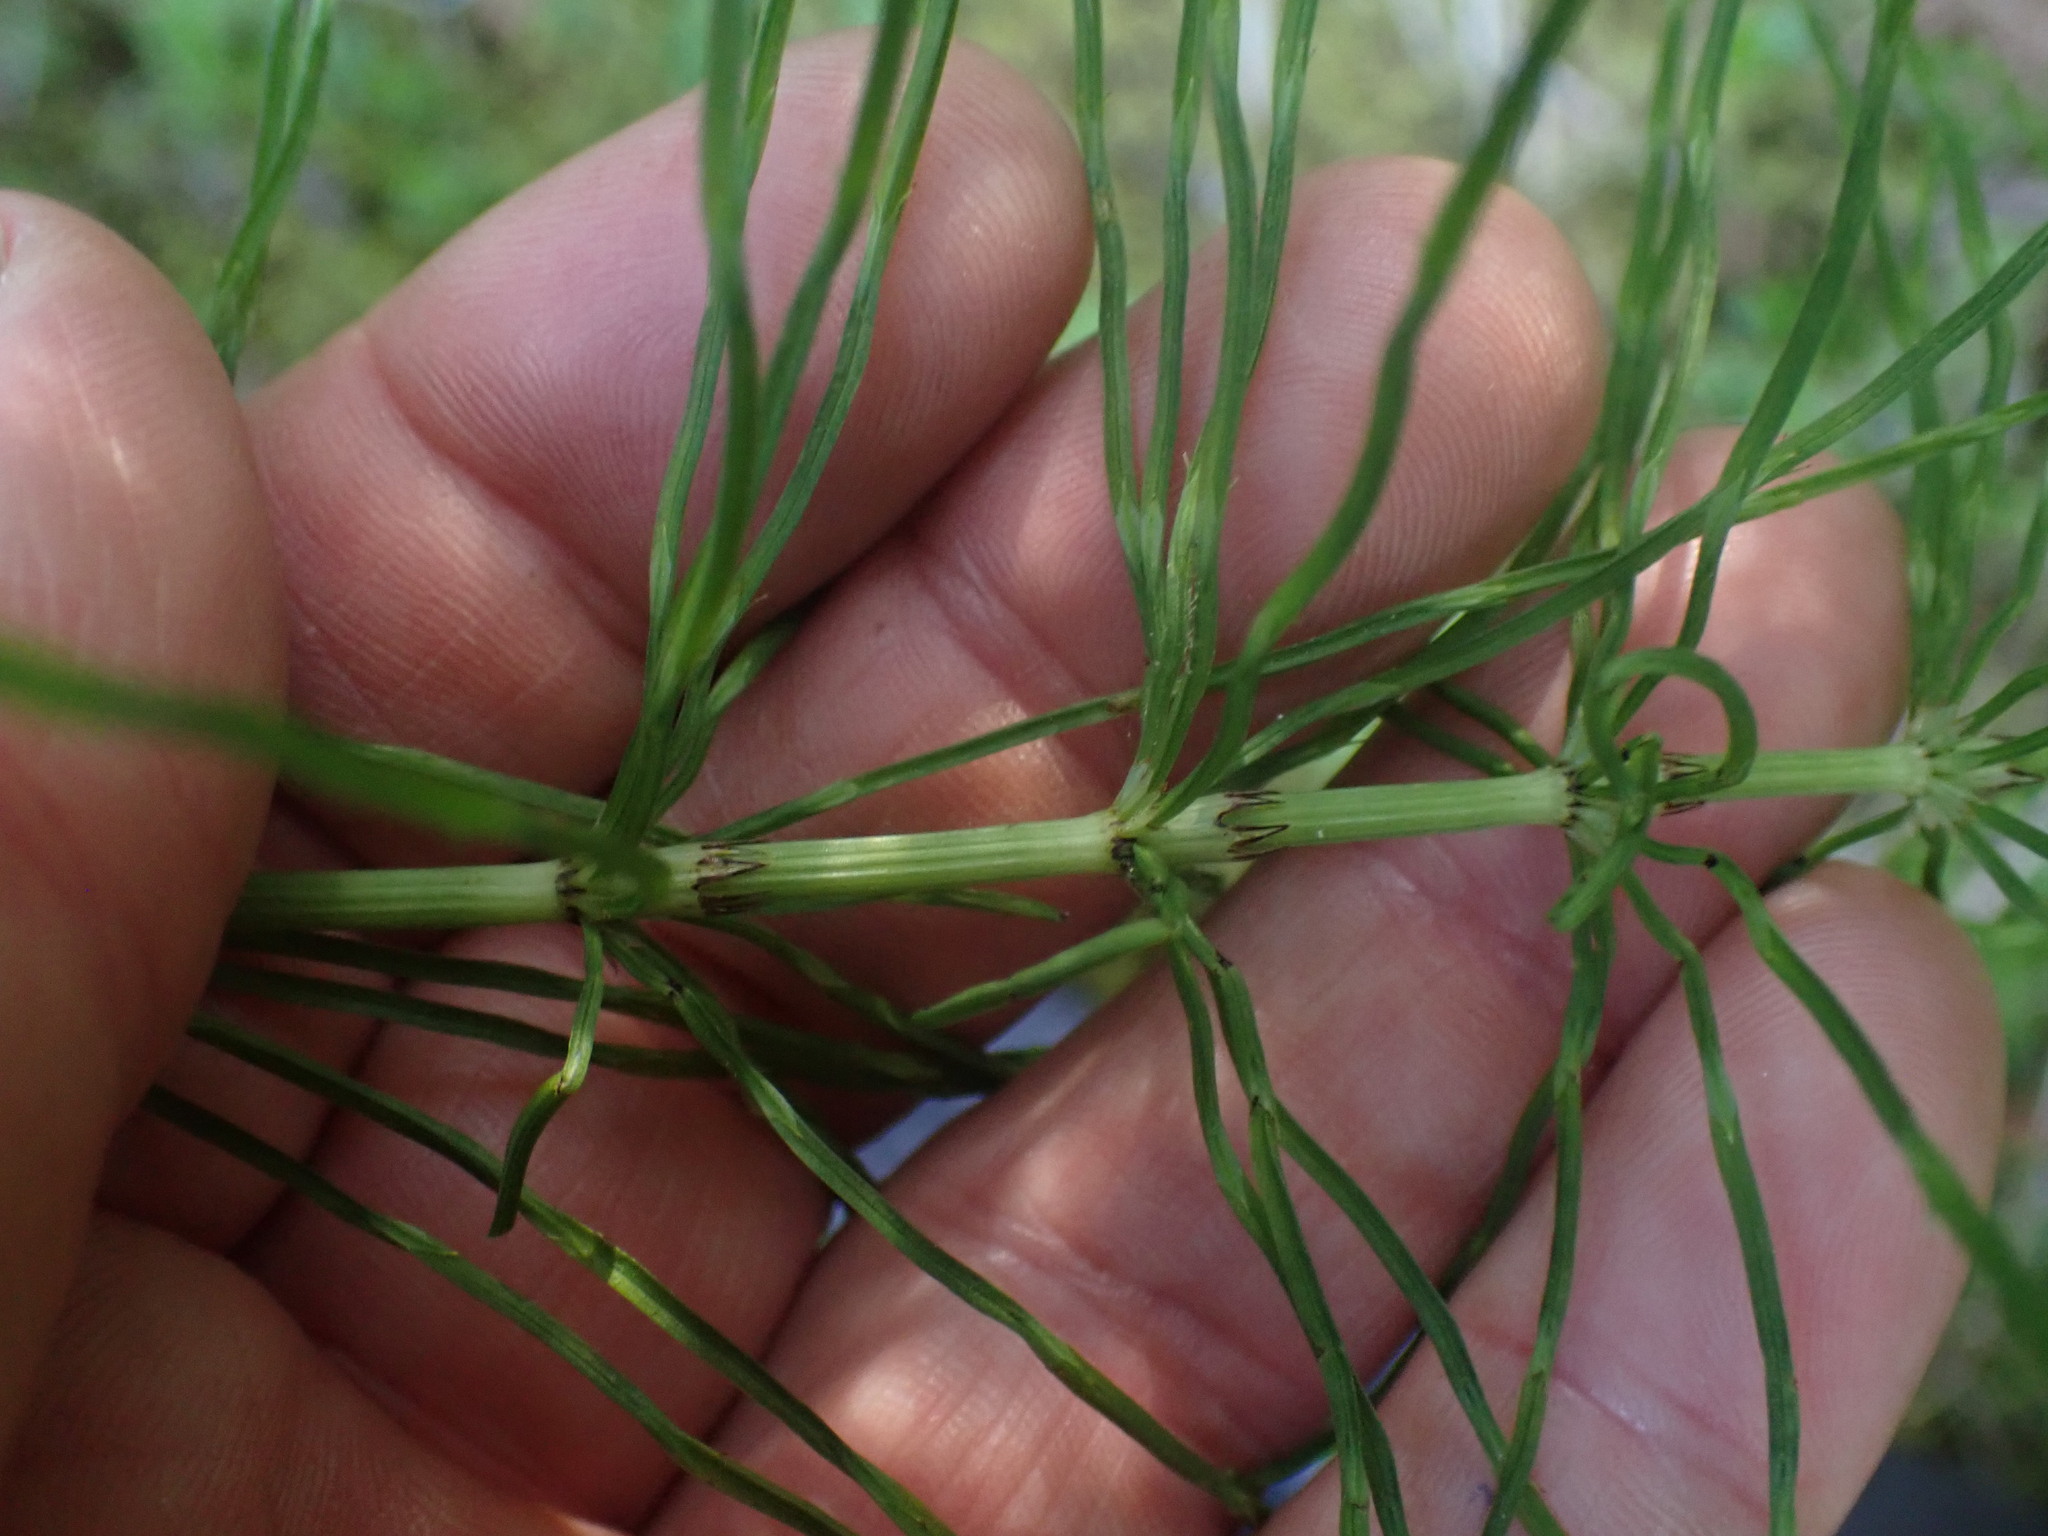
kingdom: Plantae
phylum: Tracheophyta
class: Polypodiopsida
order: Equisetales
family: Equisetaceae
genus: Equisetum
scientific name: Equisetum arvense
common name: Field horsetail
